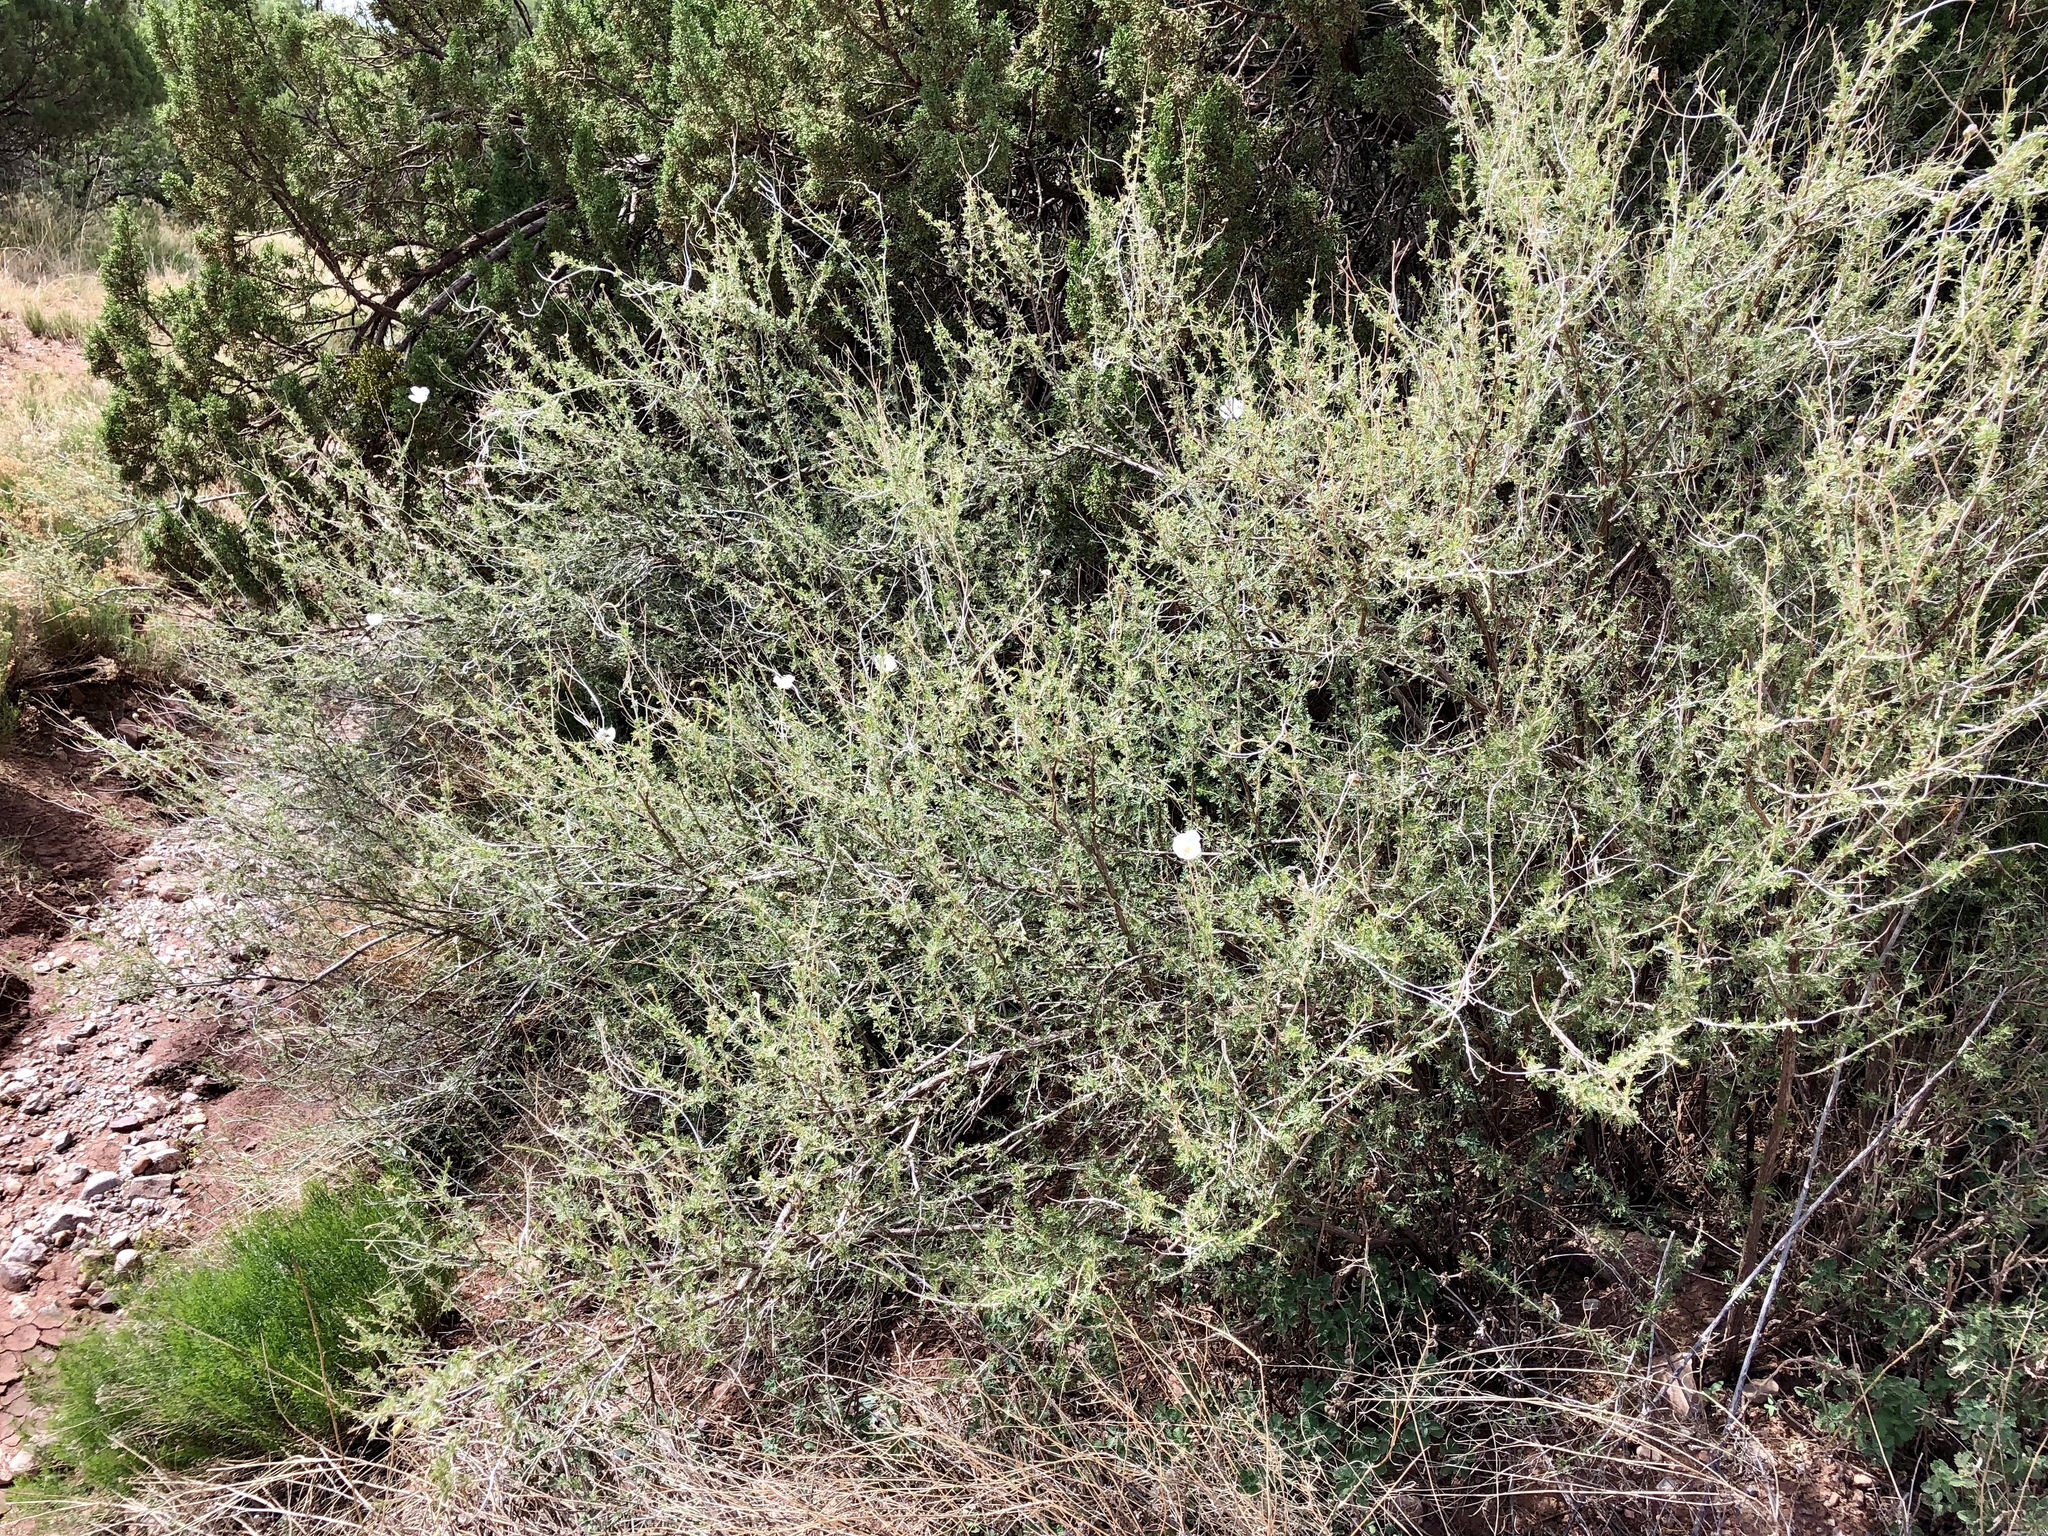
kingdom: Plantae
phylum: Tracheophyta
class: Magnoliopsida
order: Rosales
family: Rosaceae
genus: Fallugia
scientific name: Fallugia paradoxa
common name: Apache-plume
